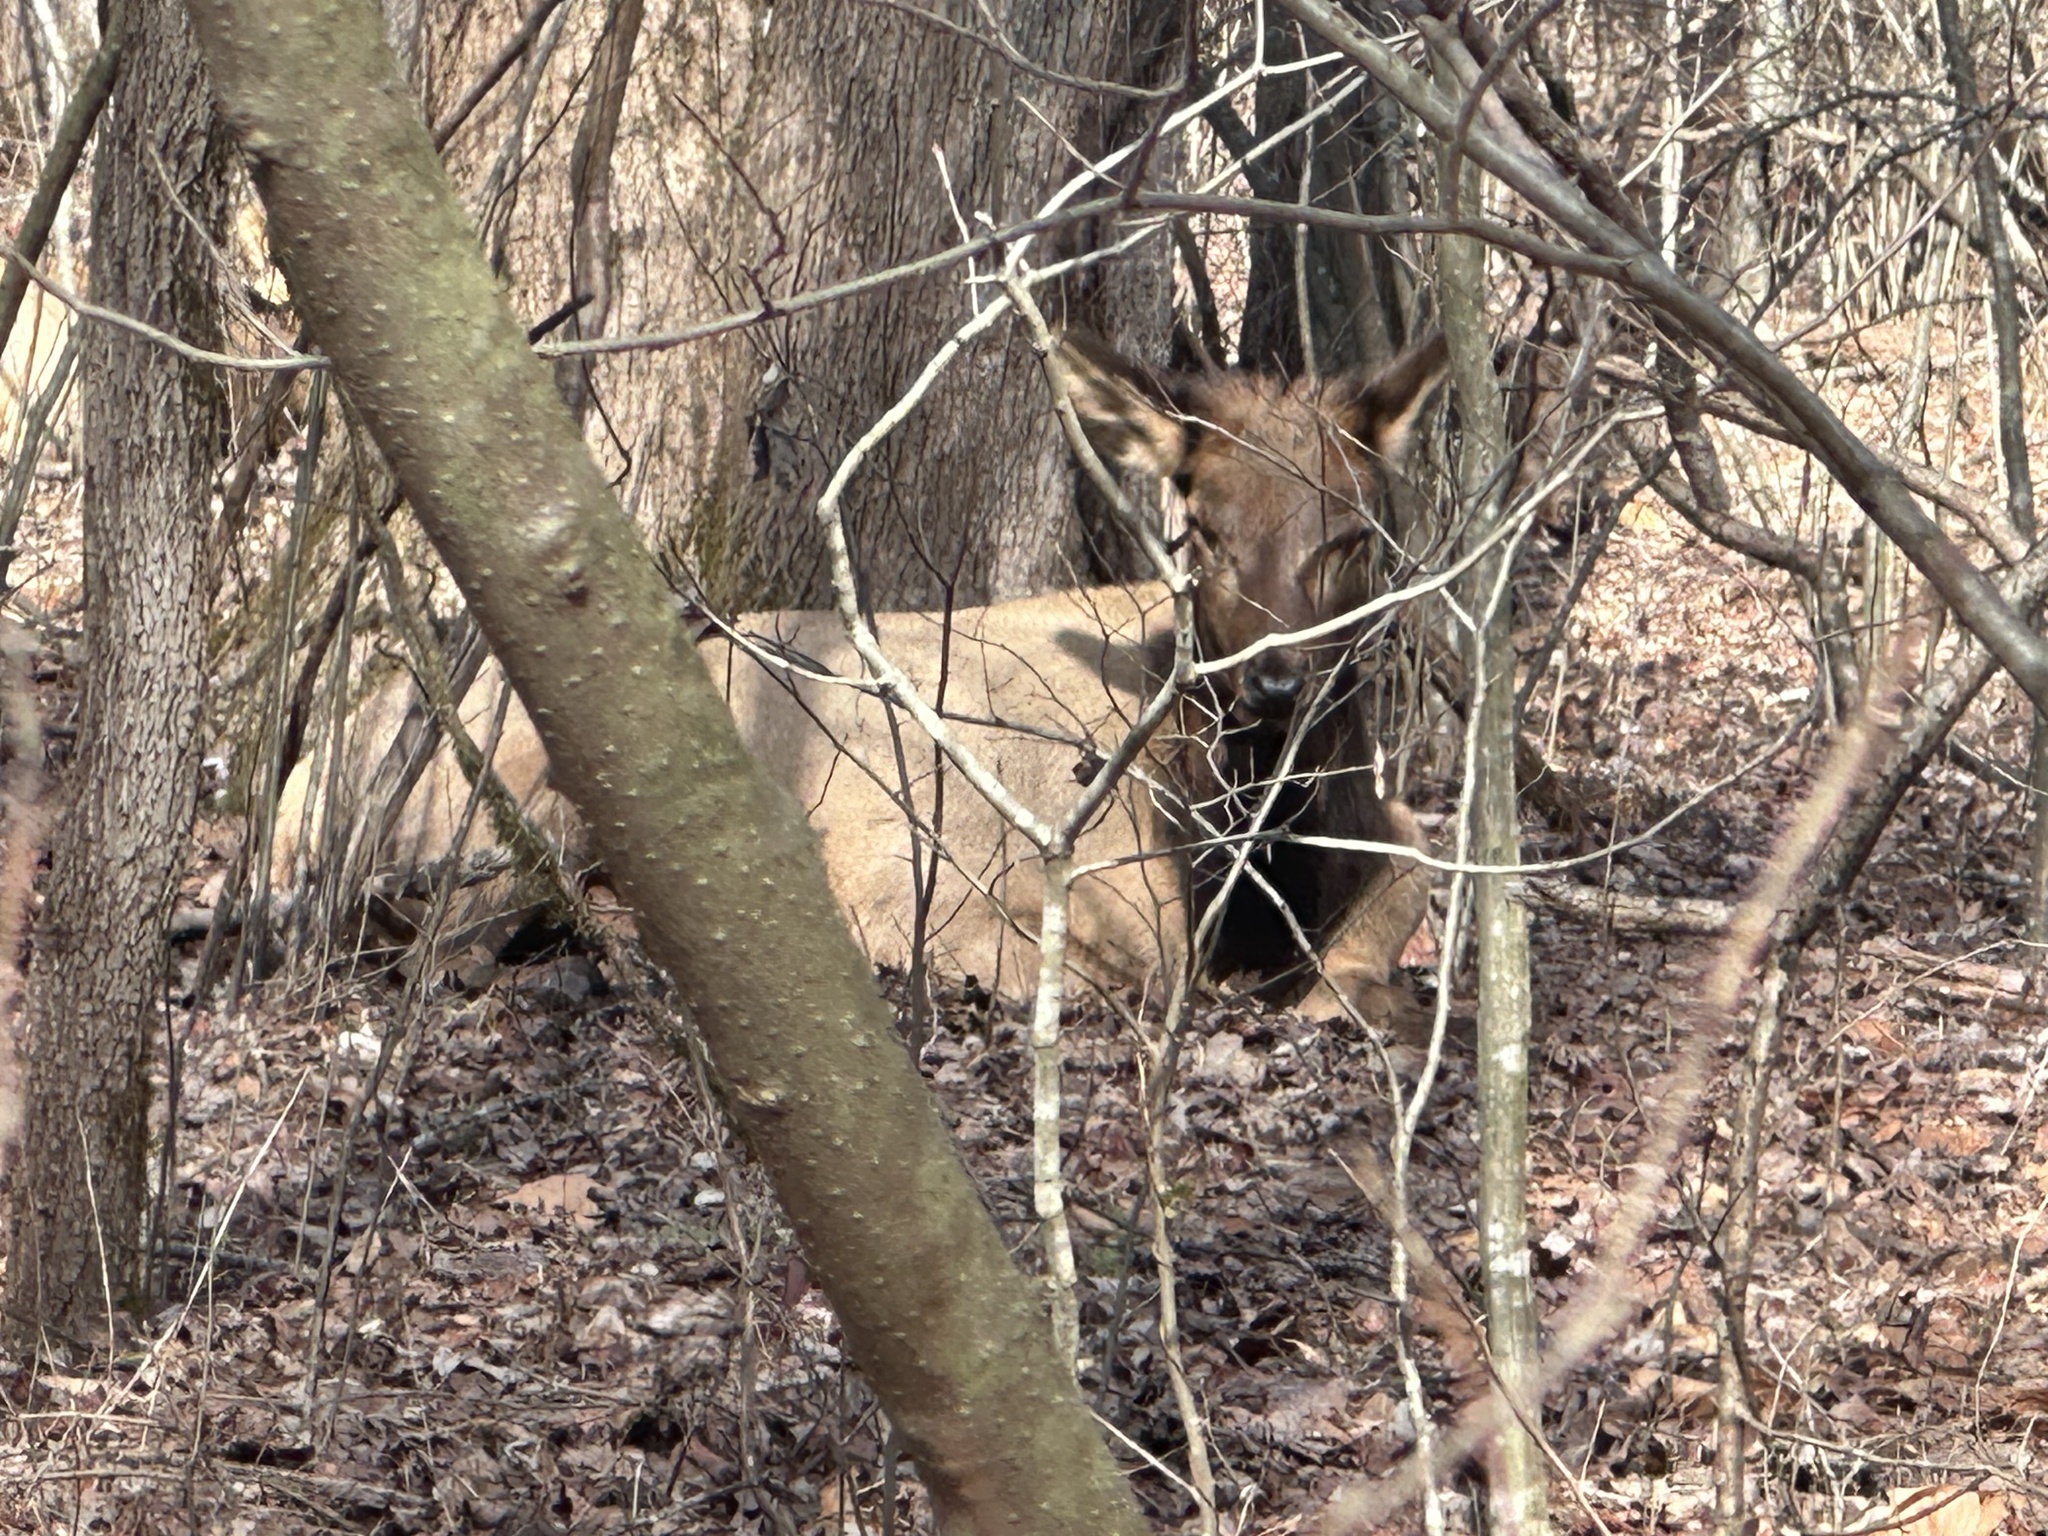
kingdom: Animalia
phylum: Chordata
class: Mammalia
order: Artiodactyla
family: Cervidae
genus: Cervus
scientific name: Cervus elaphus
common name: Red deer
